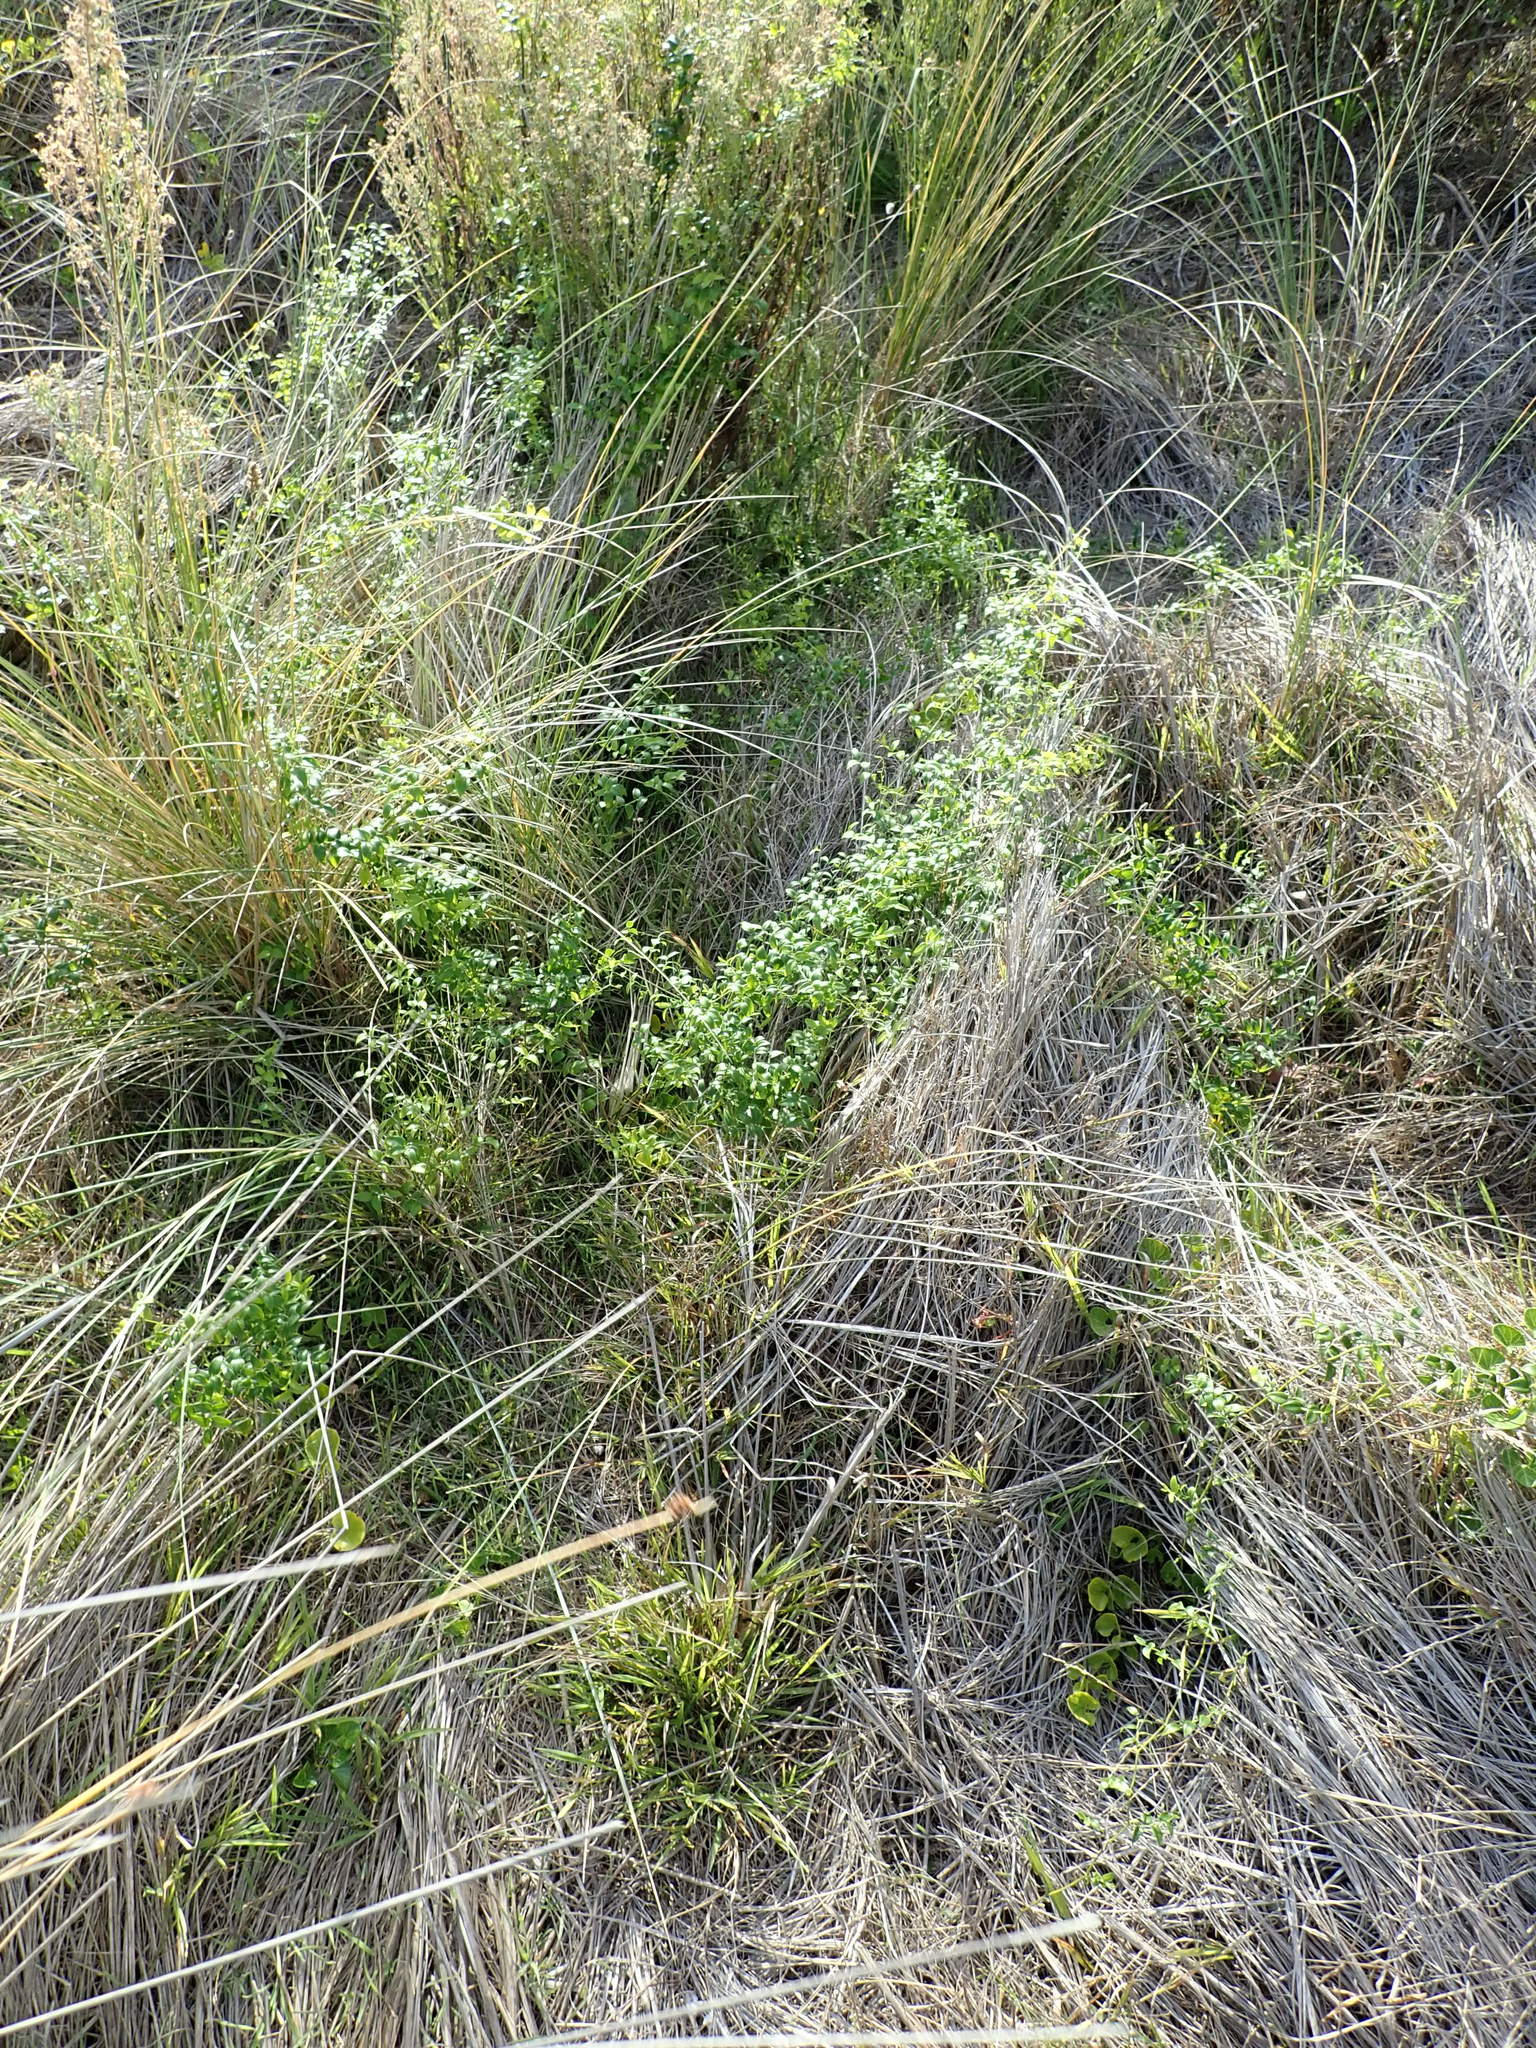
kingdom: Plantae
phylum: Tracheophyta
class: Liliopsida
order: Asparagales
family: Asparagaceae
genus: Asparagus
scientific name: Asparagus asparagoides
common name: African asparagus fern
